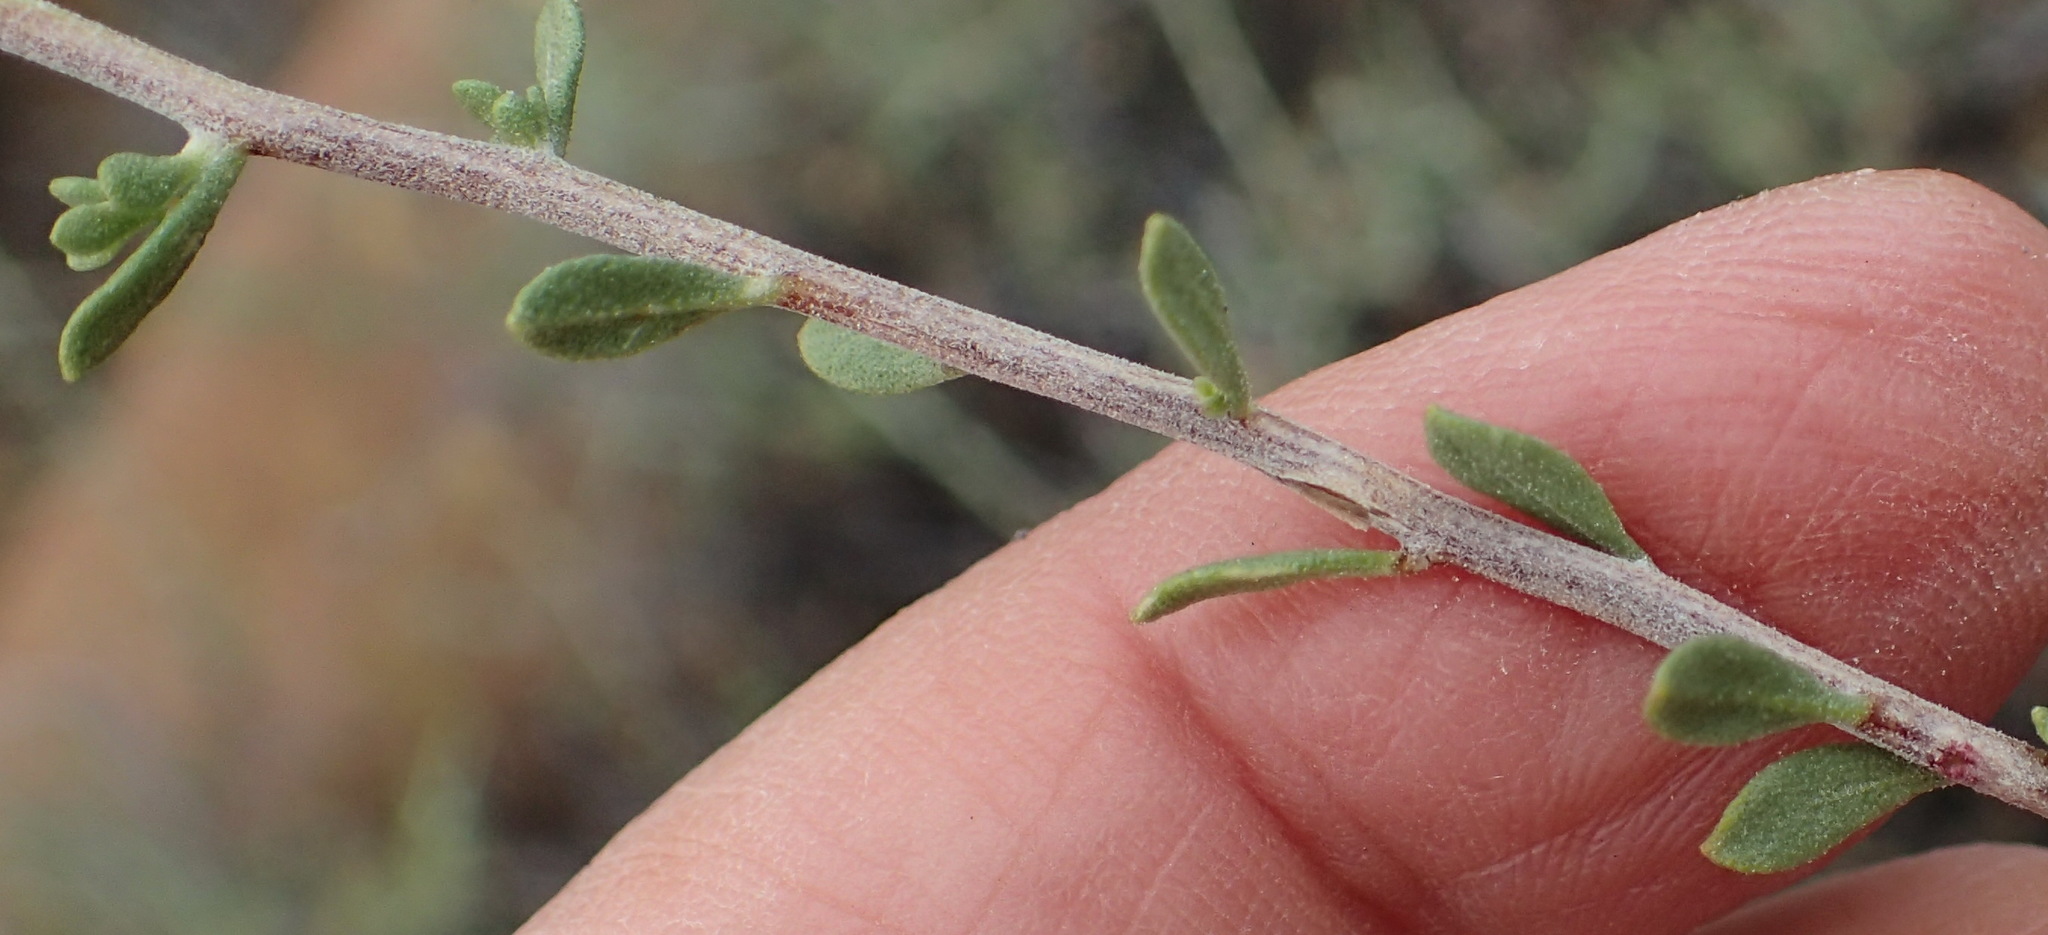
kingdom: Plantae
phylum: Tracheophyta
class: Magnoliopsida
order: Asterales
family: Asteraceae
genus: Pegolettia
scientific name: Pegolettia retrofracta
